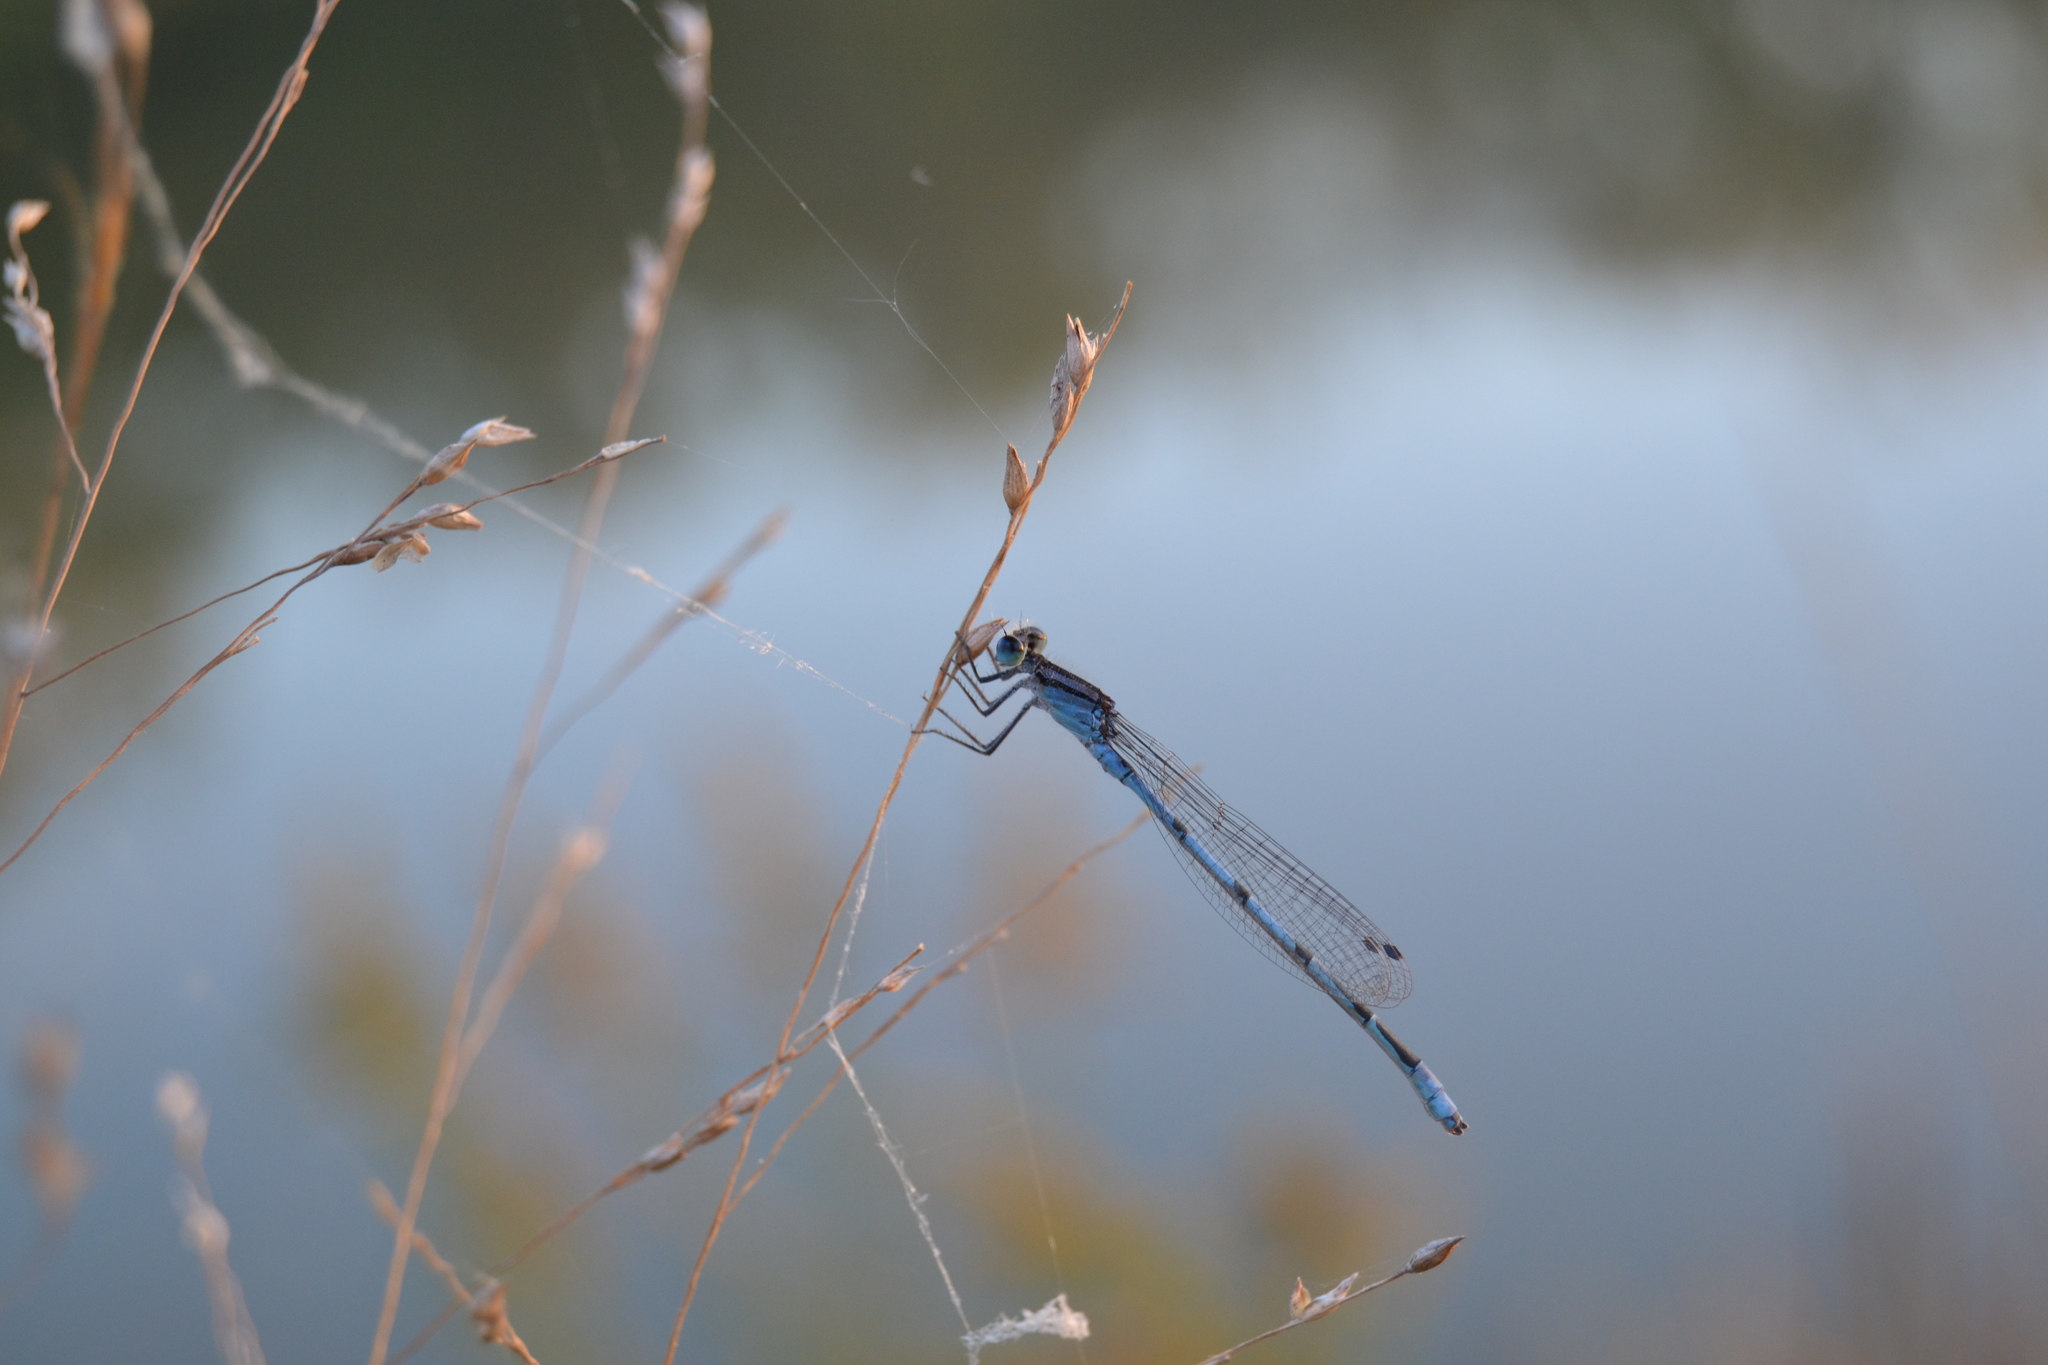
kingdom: Animalia
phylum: Arthropoda
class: Insecta
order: Odonata
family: Coenagrionidae
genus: Enallagma
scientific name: Enallagma civile
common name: Damselfly
